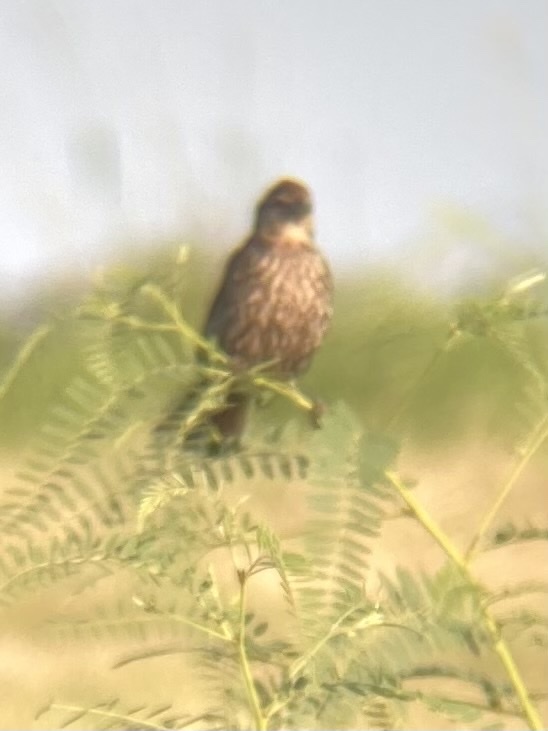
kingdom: Animalia
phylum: Chordata
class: Aves
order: Passeriformes
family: Icteridae
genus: Agelaius
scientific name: Agelaius phoeniceus
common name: Red-winged blackbird
